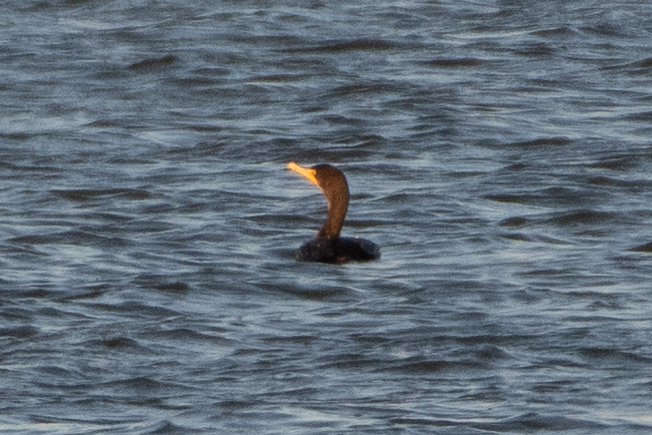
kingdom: Animalia
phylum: Chordata
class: Aves
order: Suliformes
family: Phalacrocoracidae
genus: Phalacrocorax
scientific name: Phalacrocorax auritus
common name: Double-crested cormorant
